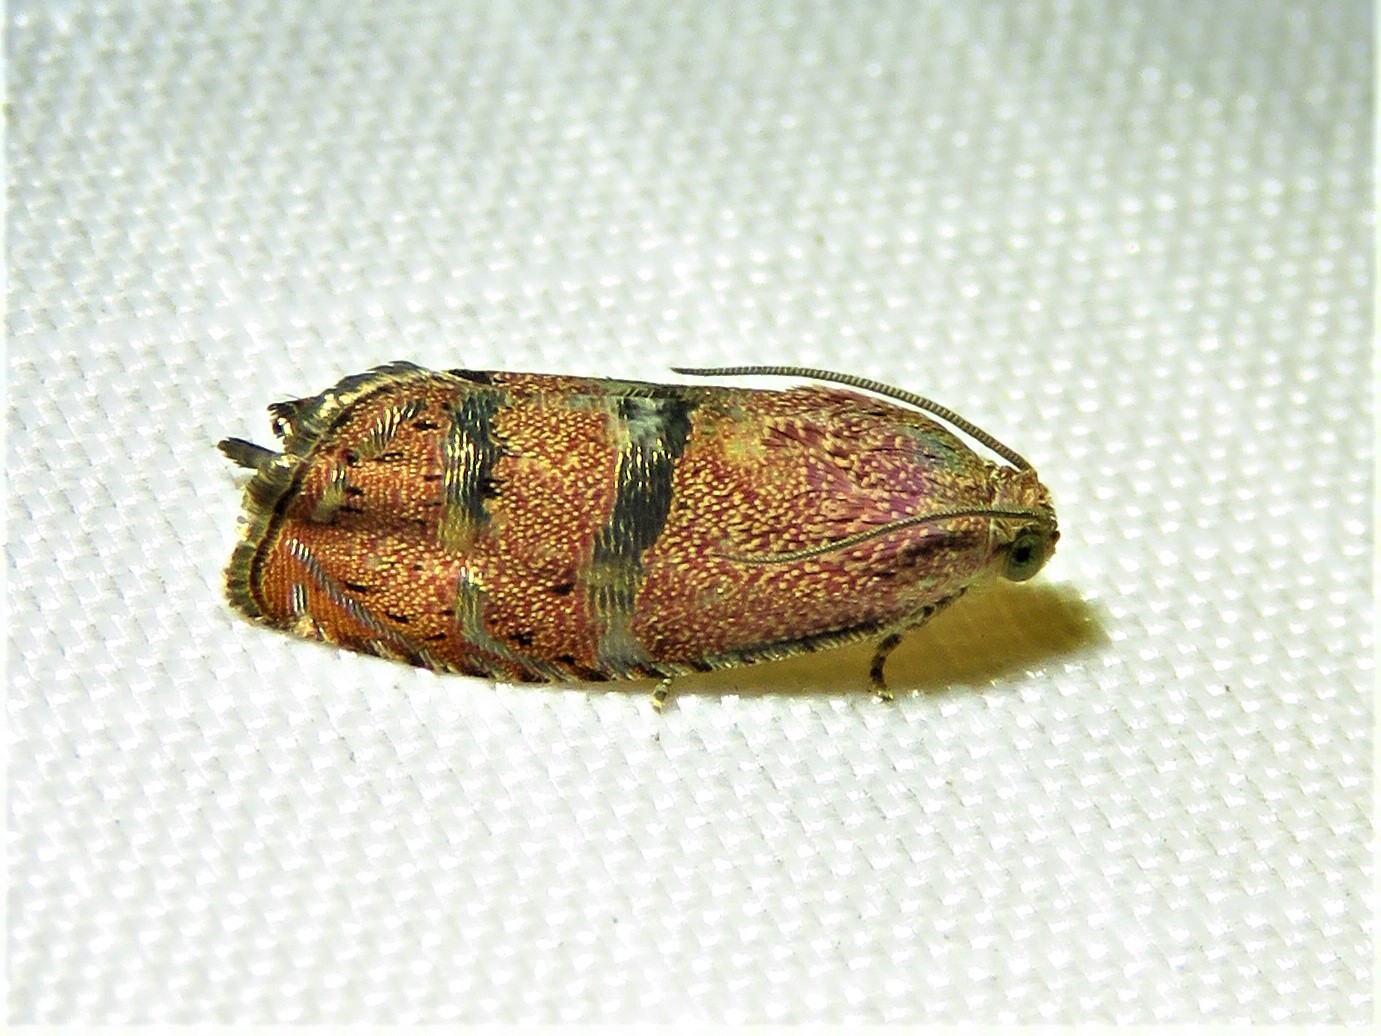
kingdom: Animalia
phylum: Arthropoda
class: Insecta
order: Lepidoptera
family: Tortricidae
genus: Cydia
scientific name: Cydia latiferreana
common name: Filbertworm moth
